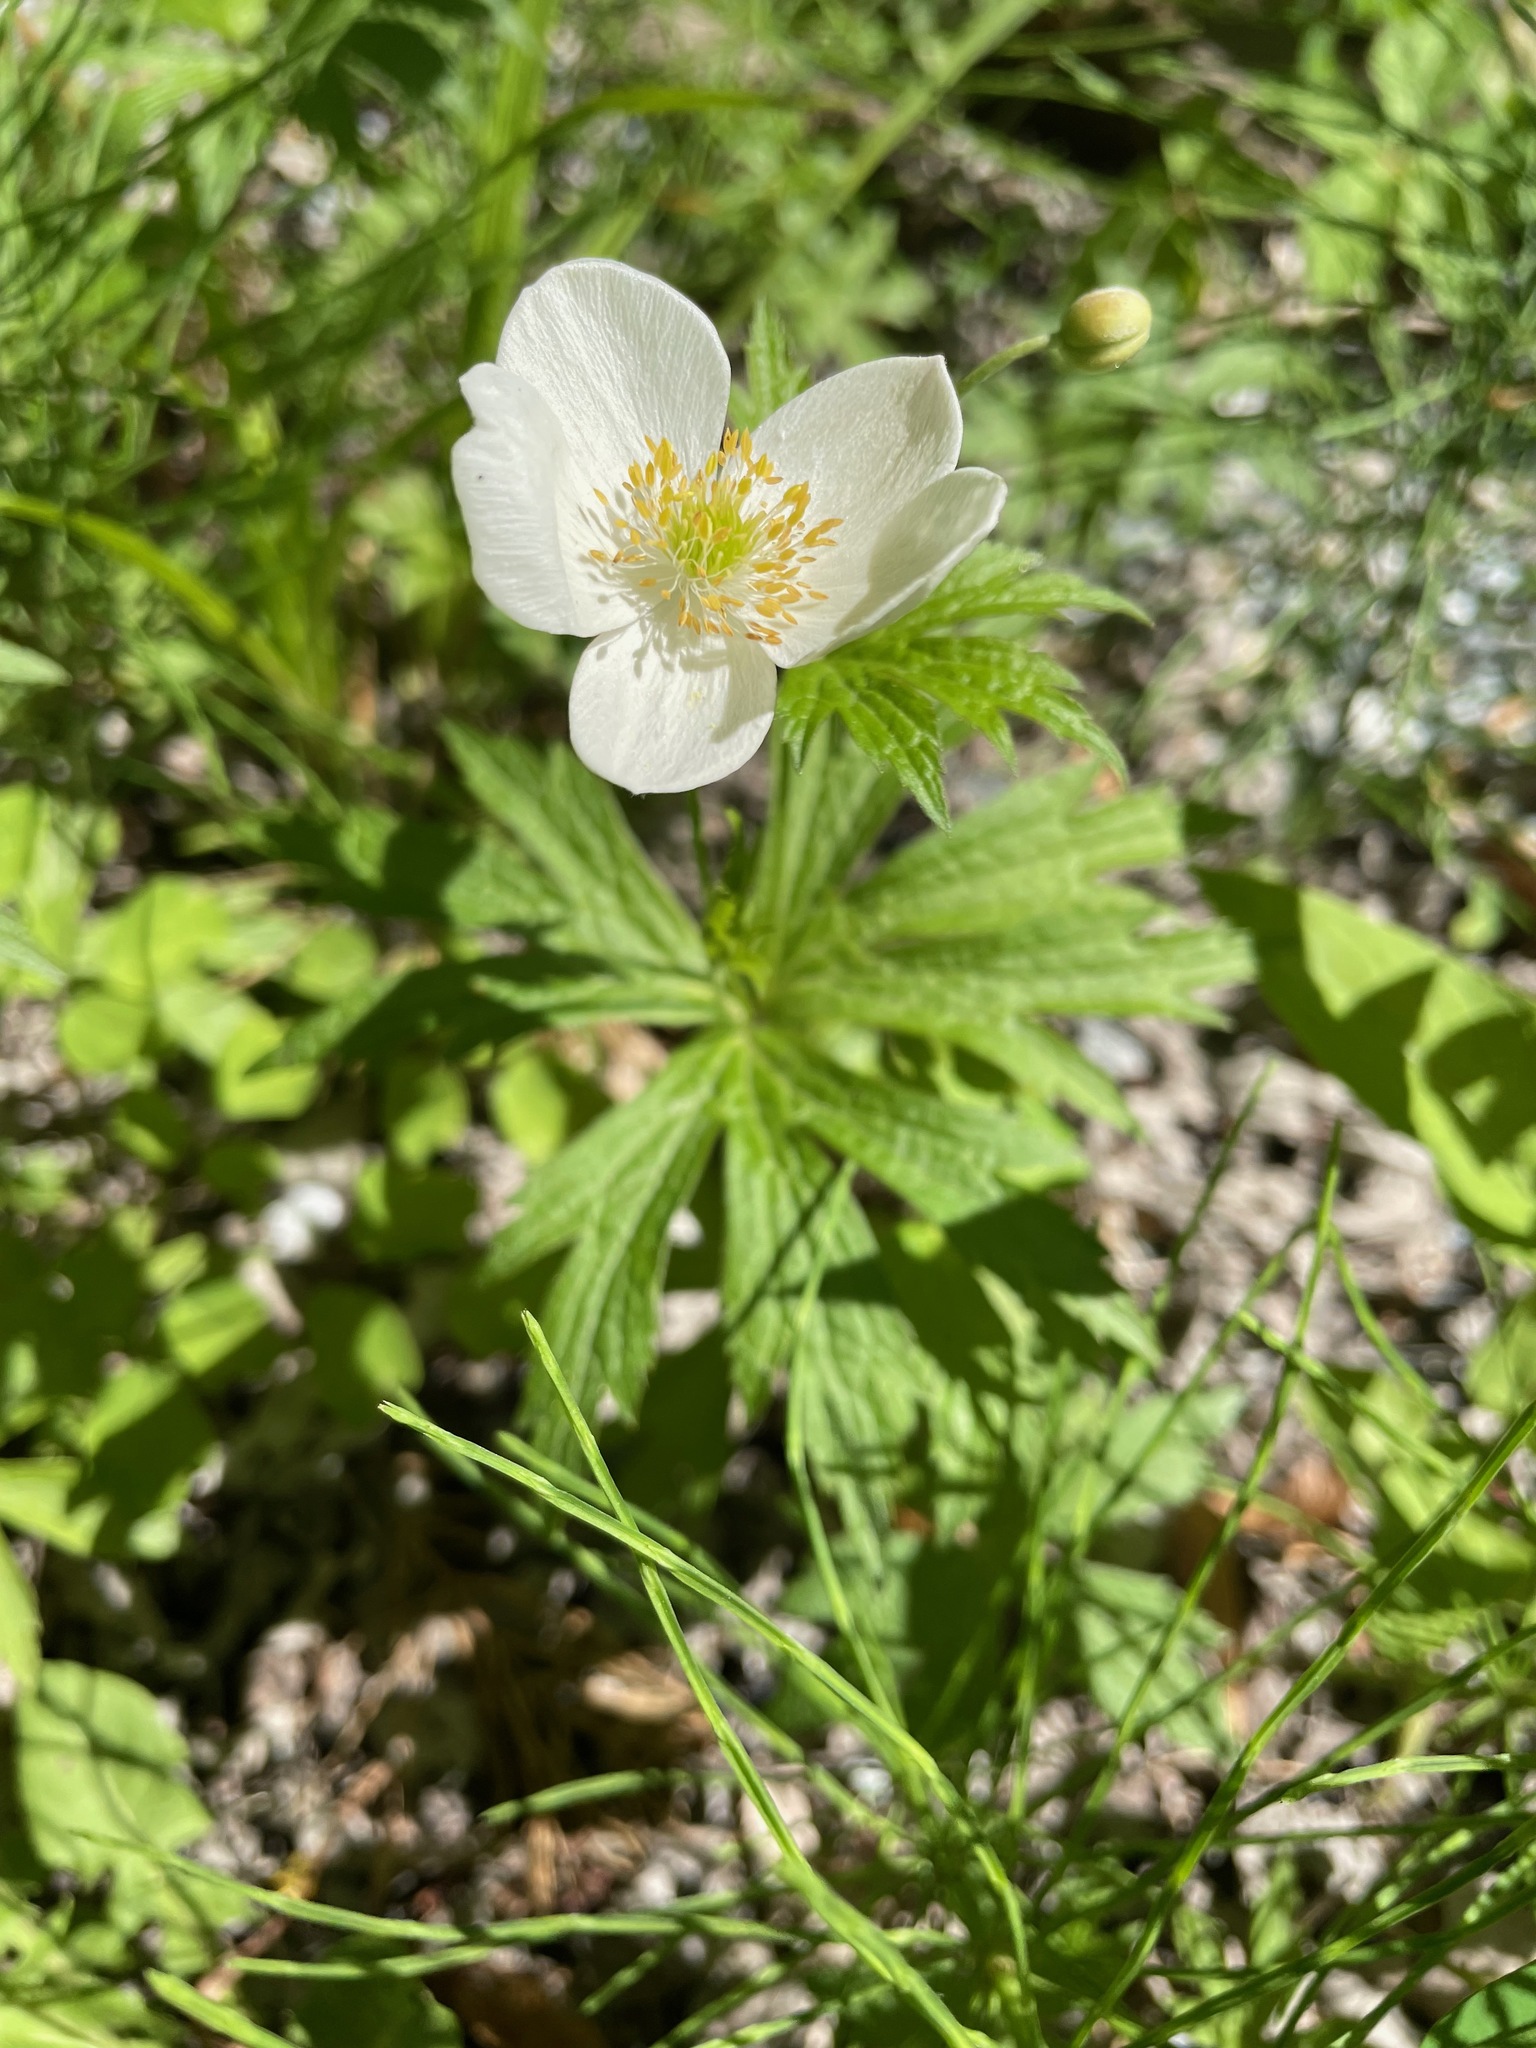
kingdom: Plantae
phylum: Tracheophyta
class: Magnoliopsida
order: Ranunculales
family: Ranunculaceae
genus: Anemonastrum
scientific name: Anemonastrum canadense
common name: Canada anemone
